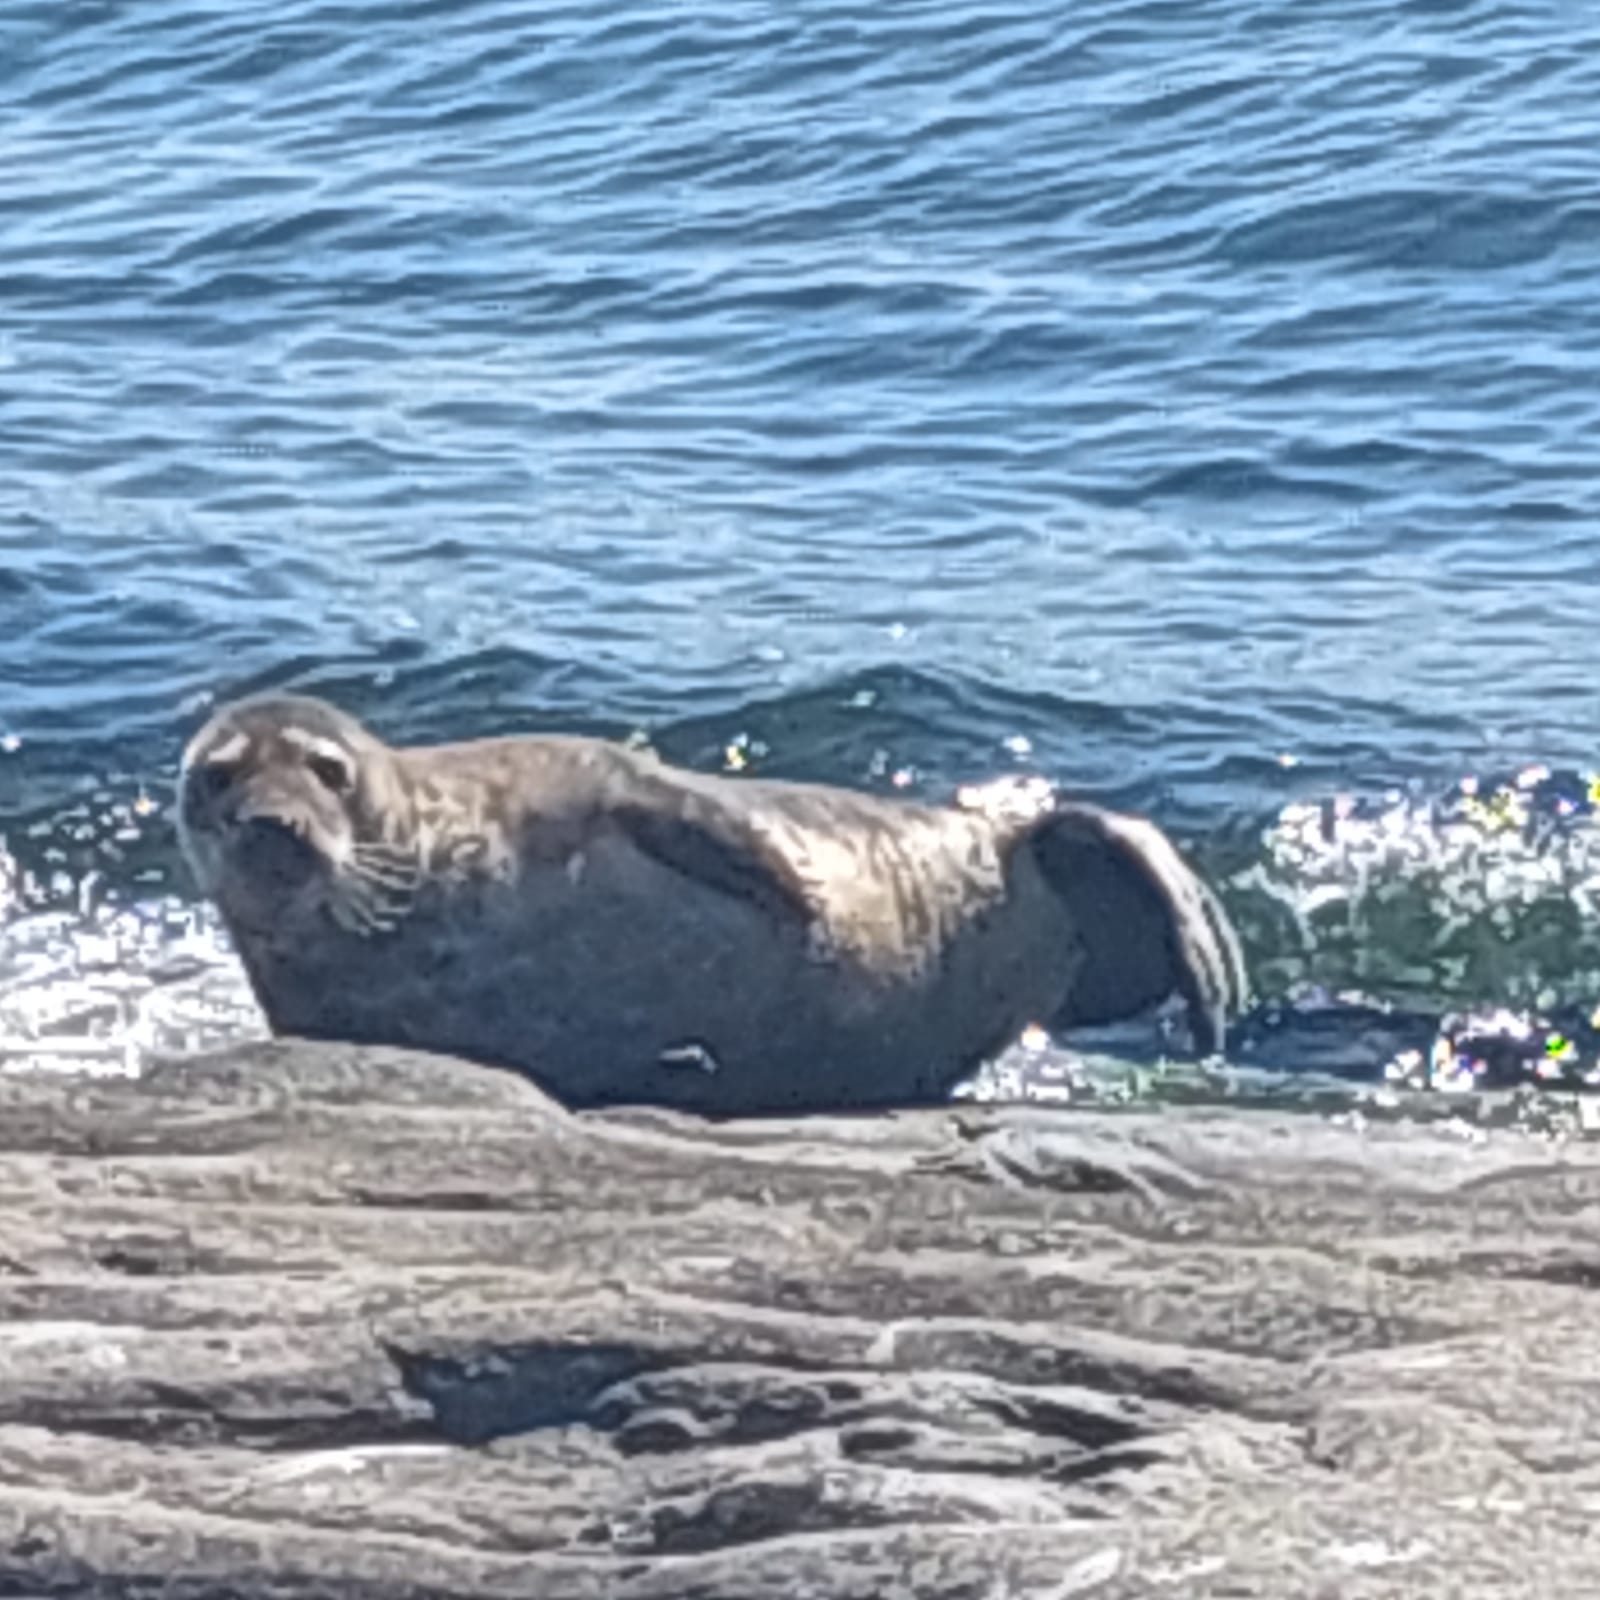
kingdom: Animalia
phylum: Chordata
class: Mammalia
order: Carnivora
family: Phocidae
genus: Halichoerus
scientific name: Halichoerus grypus
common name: Grey seal
